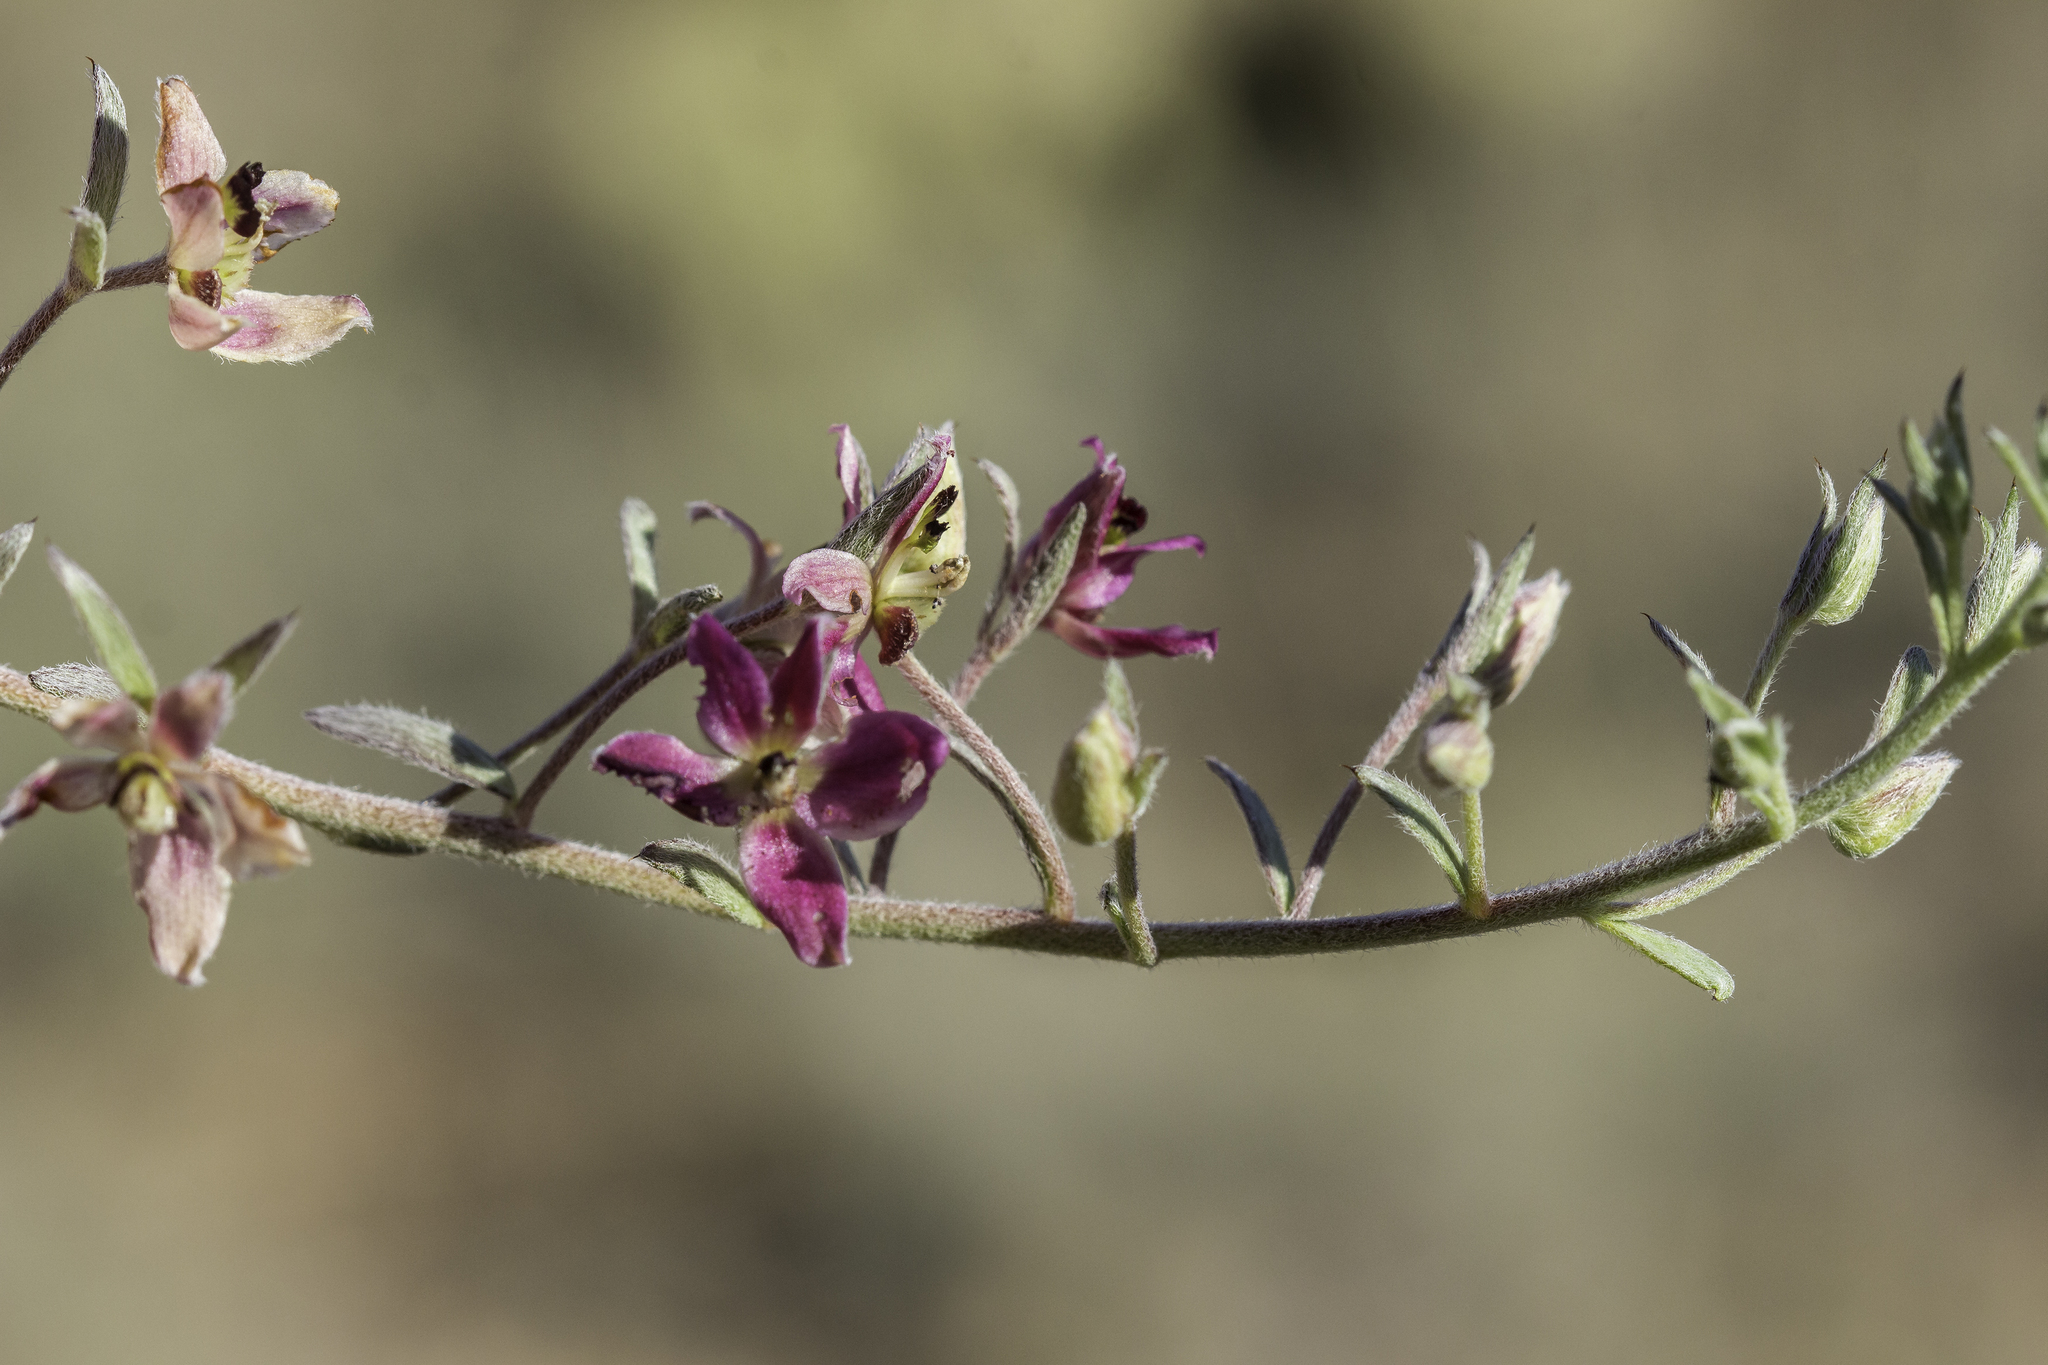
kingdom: Plantae
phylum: Tracheophyta
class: Magnoliopsida
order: Zygophyllales
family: Krameriaceae
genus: Krameria
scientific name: Krameria lanceolata
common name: Ratany
